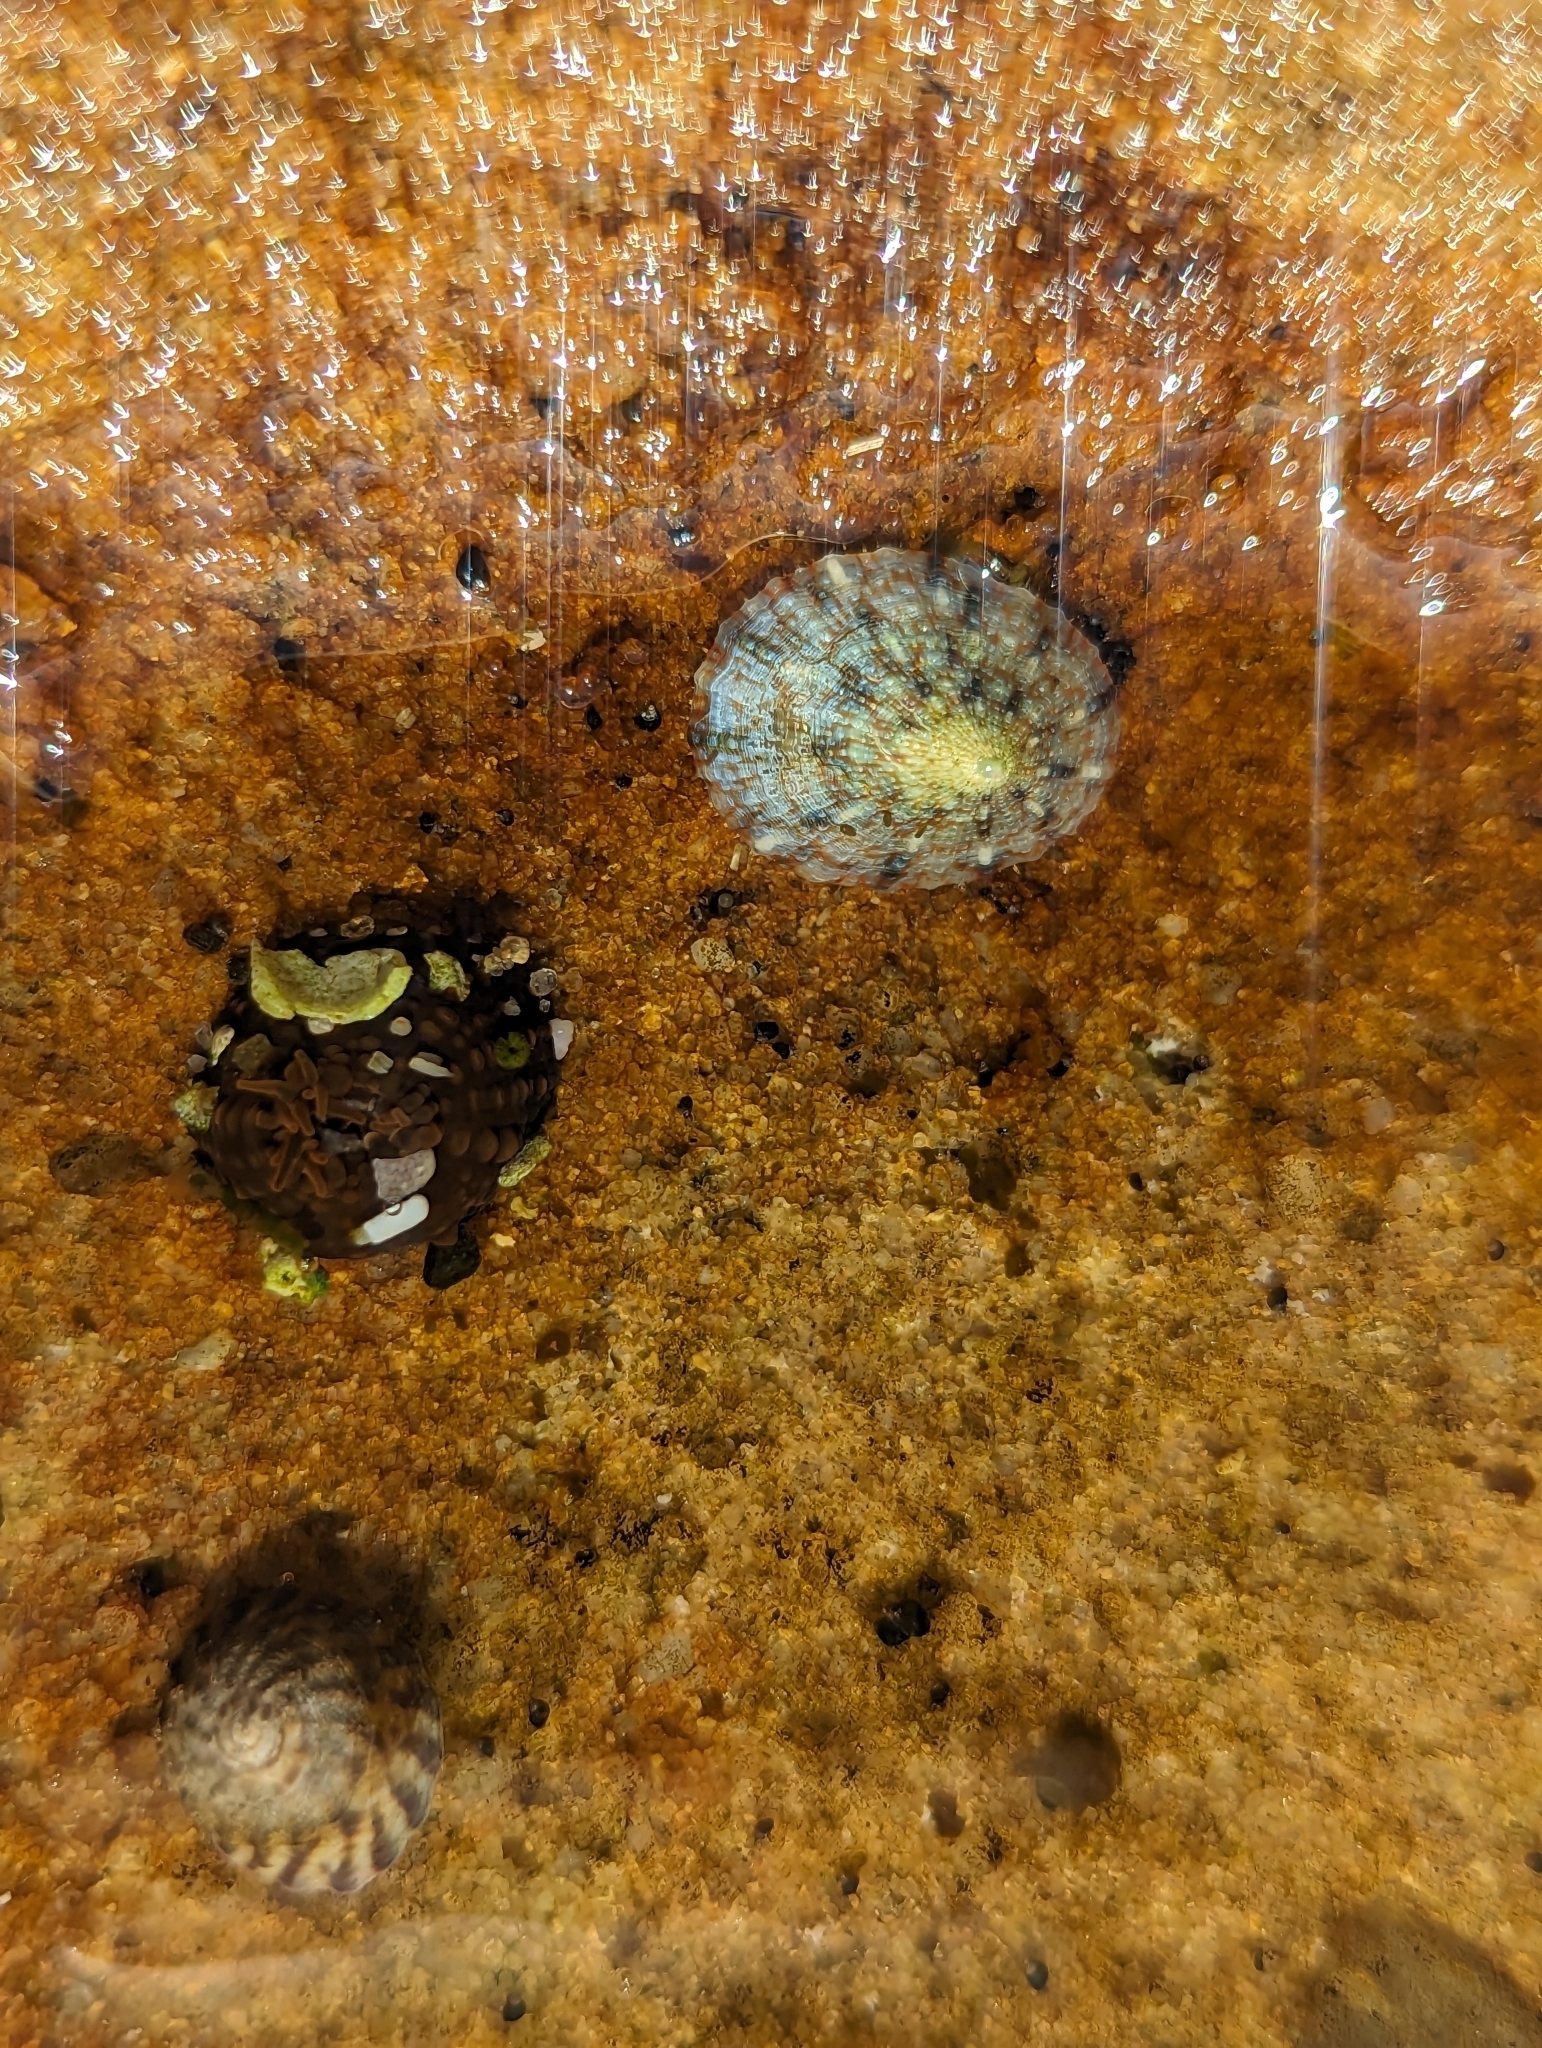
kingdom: Animalia
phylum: Mollusca
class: Gastropoda
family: Nacellidae
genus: Cellana
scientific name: Cellana tramoserica
